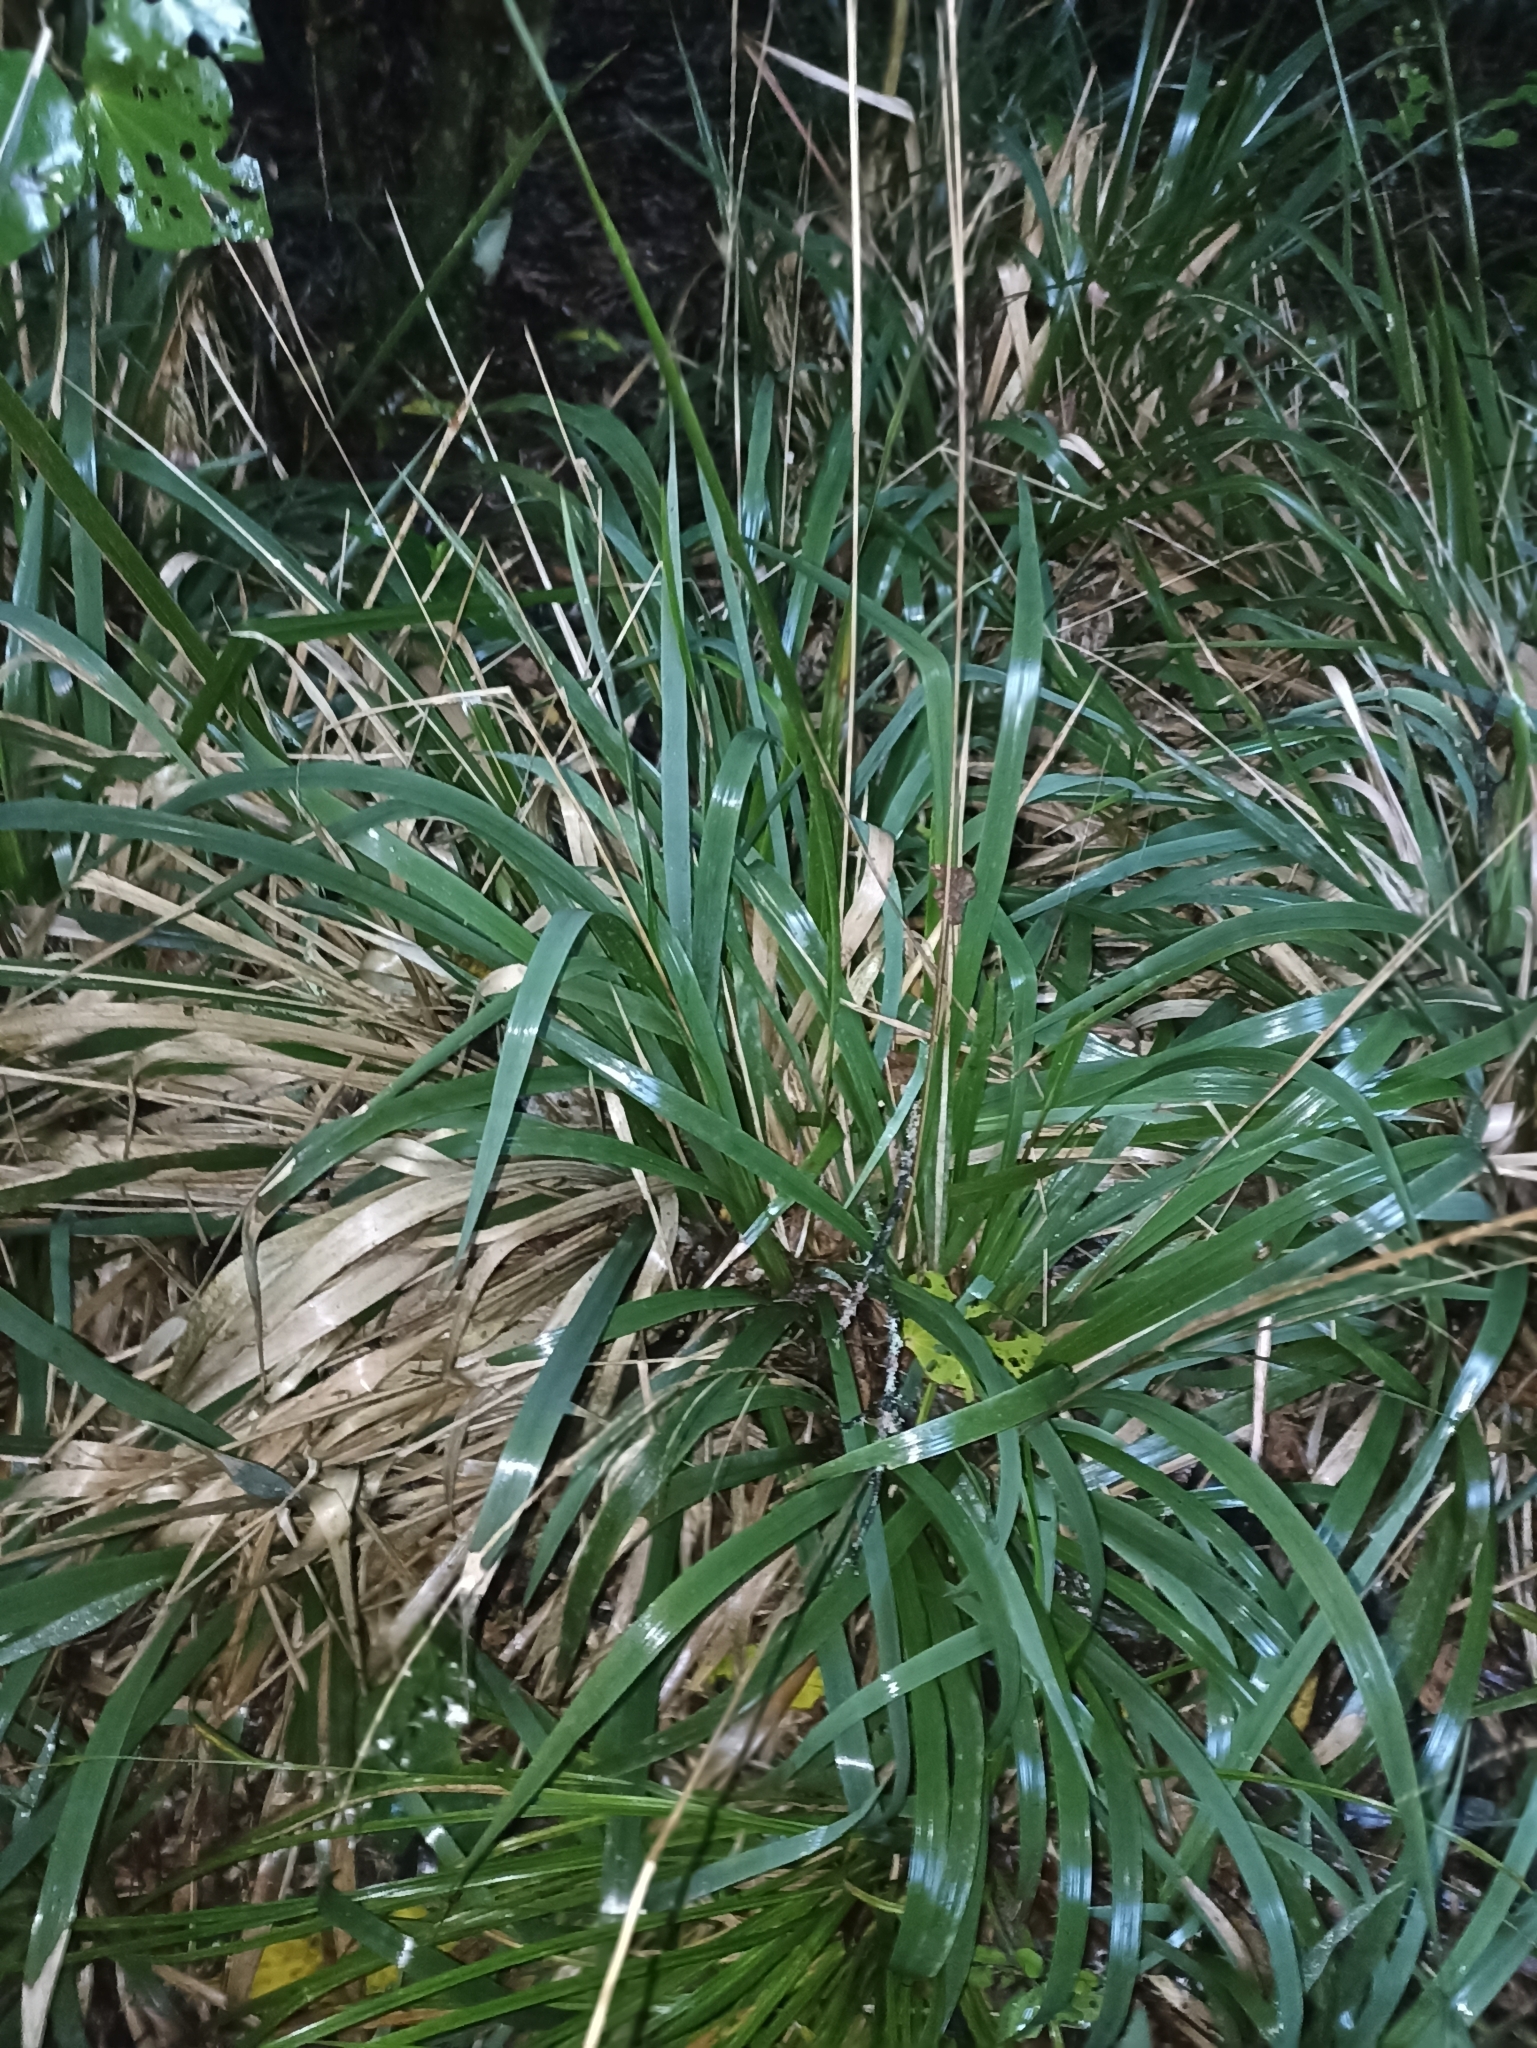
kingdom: Plantae
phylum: Tracheophyta
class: Liliopsida
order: Poales
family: Poaceae
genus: Ehrharta
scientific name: Ehrharta diplax
